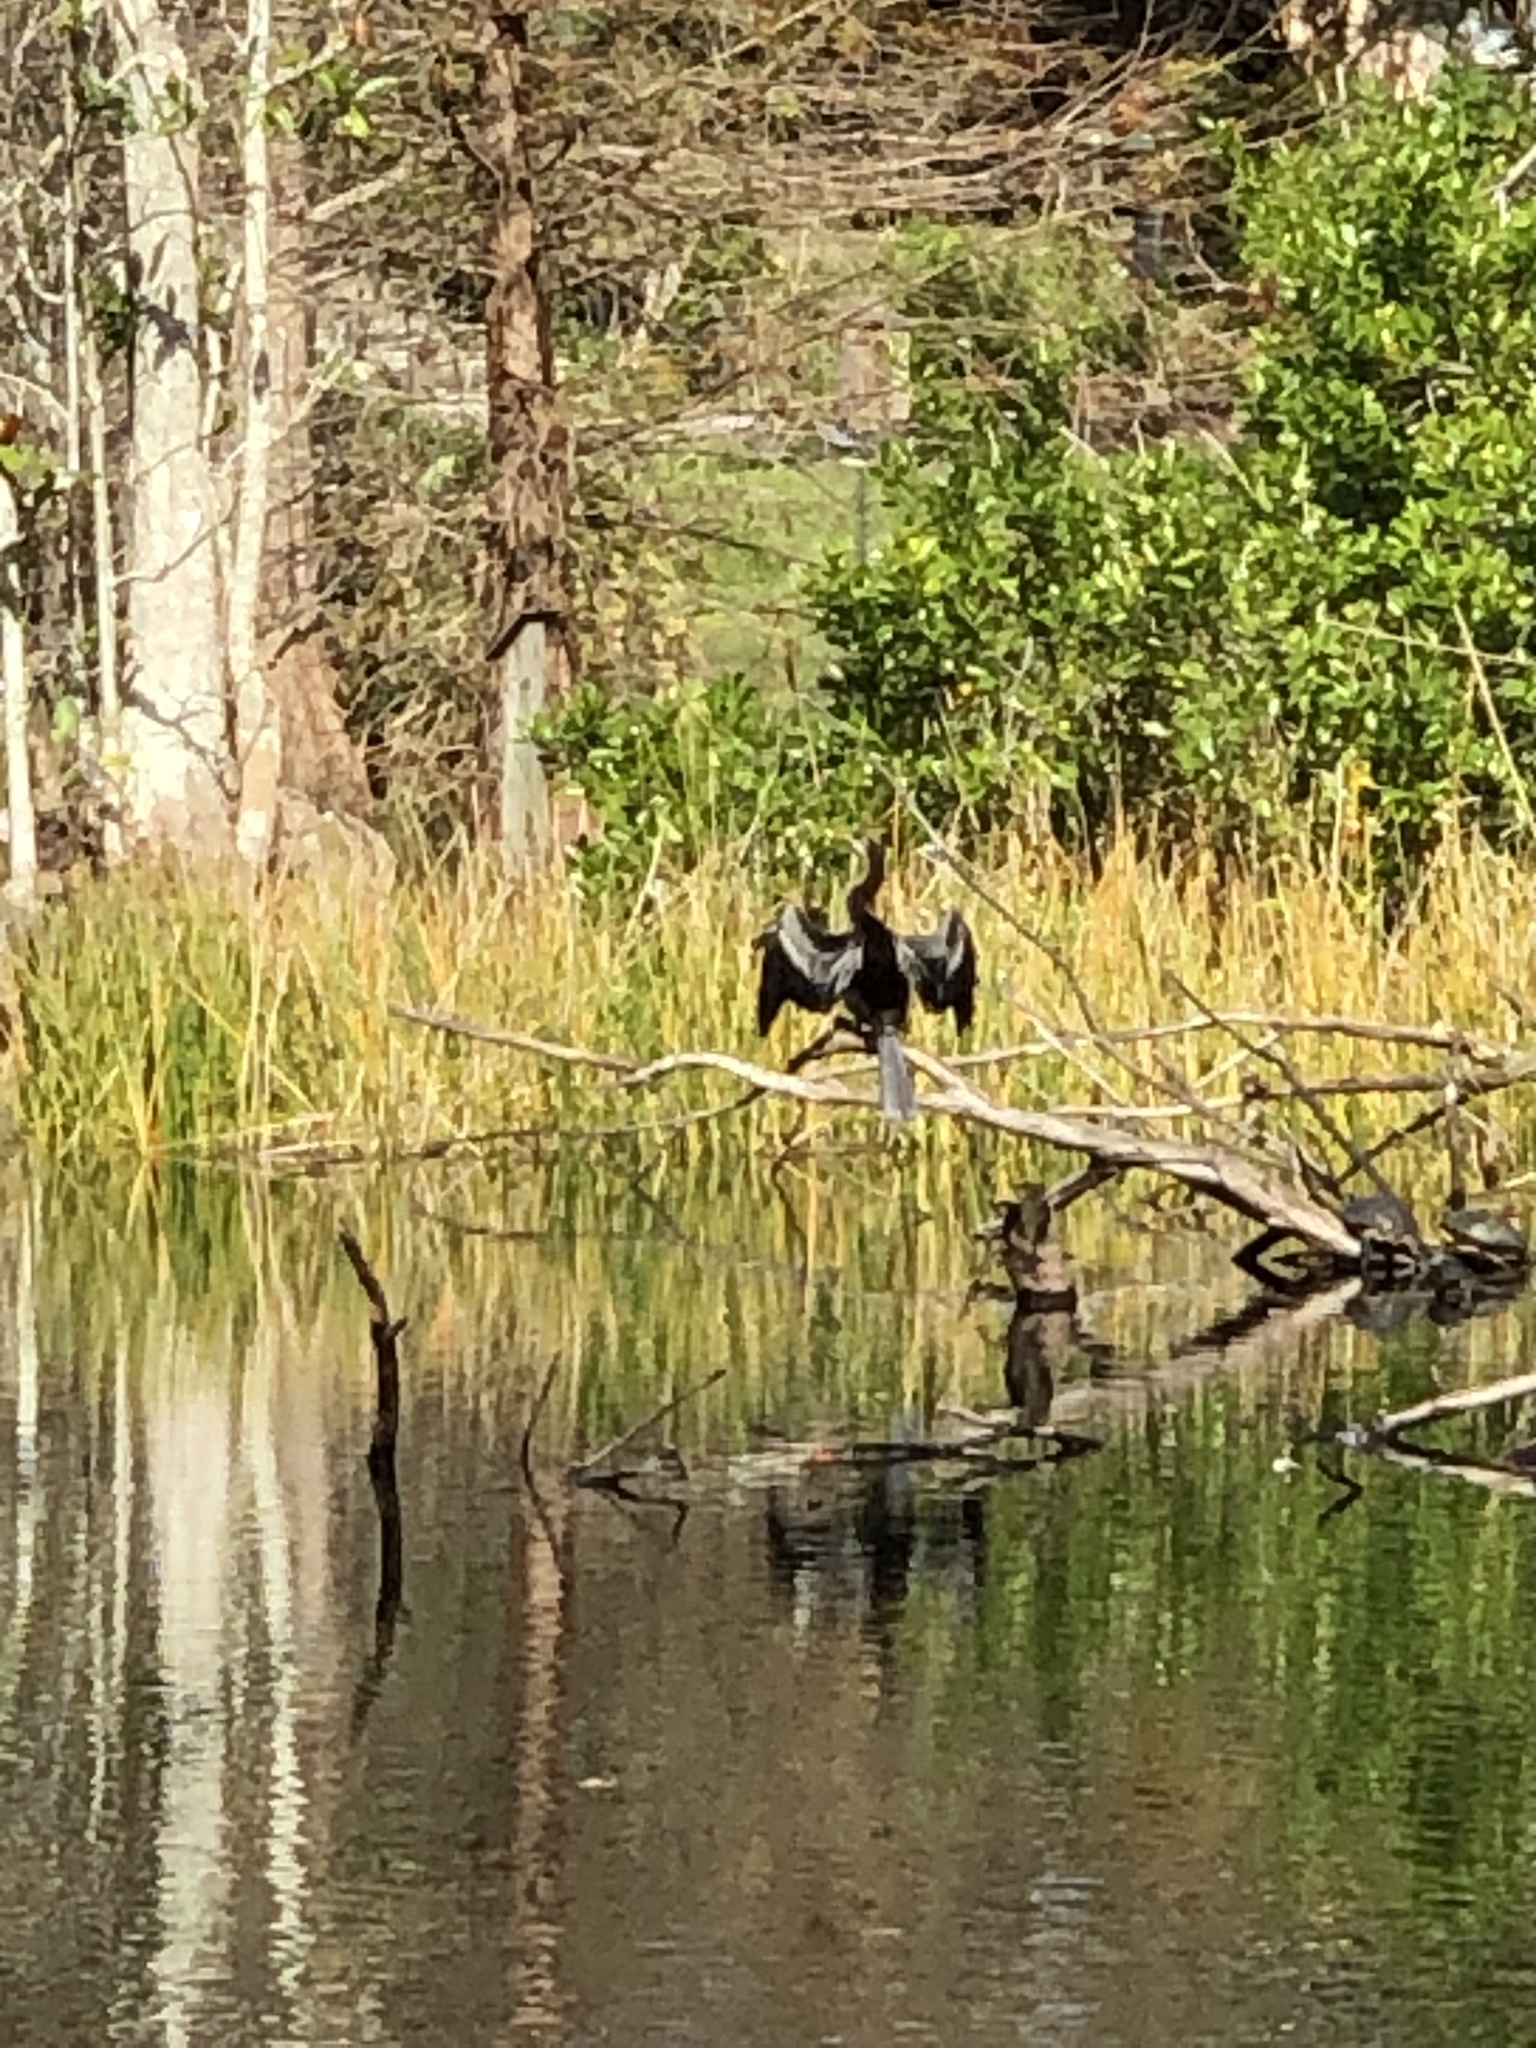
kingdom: Animalia
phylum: Chordata
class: Aves
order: Suliformes
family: Anhingidae
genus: Anhinga
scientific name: Anhinga anhinga
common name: Anhinga
